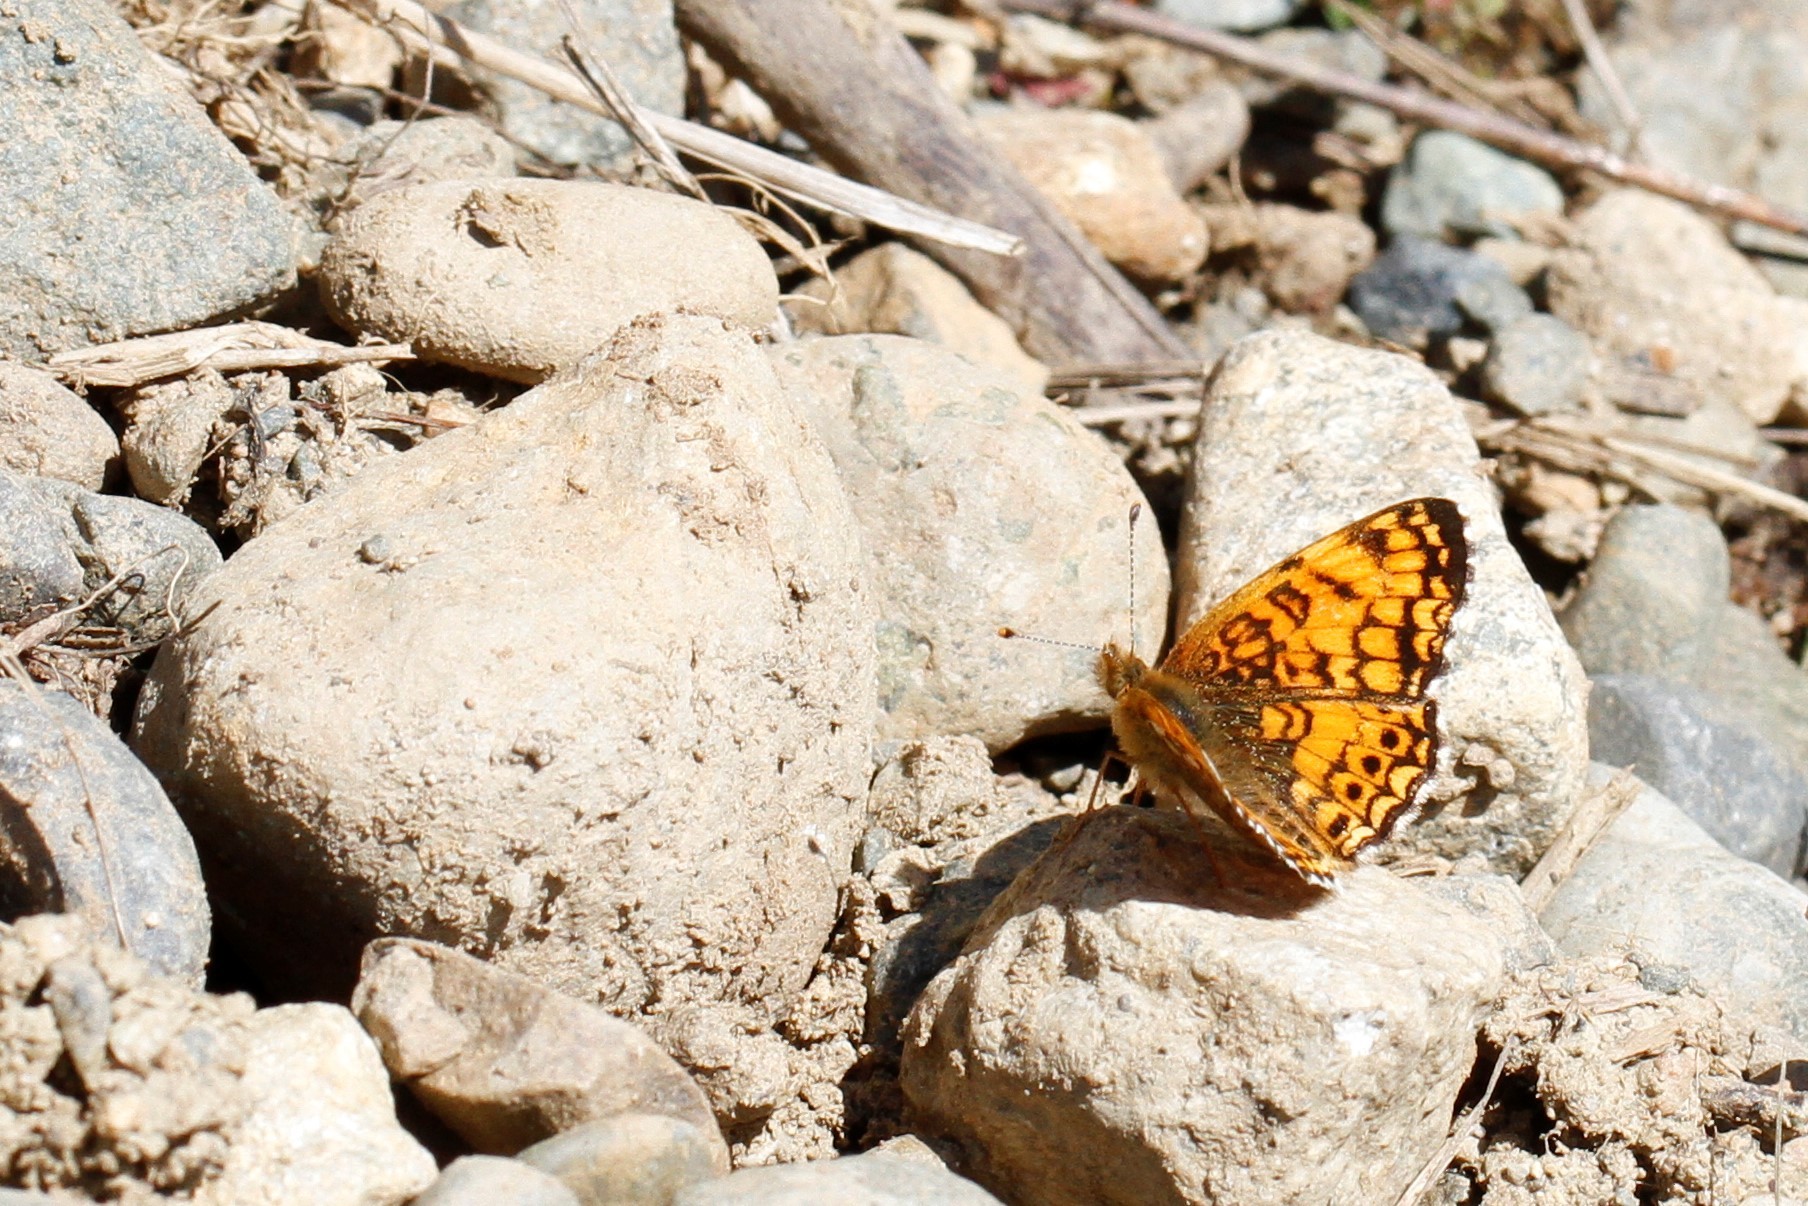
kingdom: Animalia
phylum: Arthropoda
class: Insecta
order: Lepidoptera
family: Nymphalidae
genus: Eresia
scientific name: Eresia aveyrona
